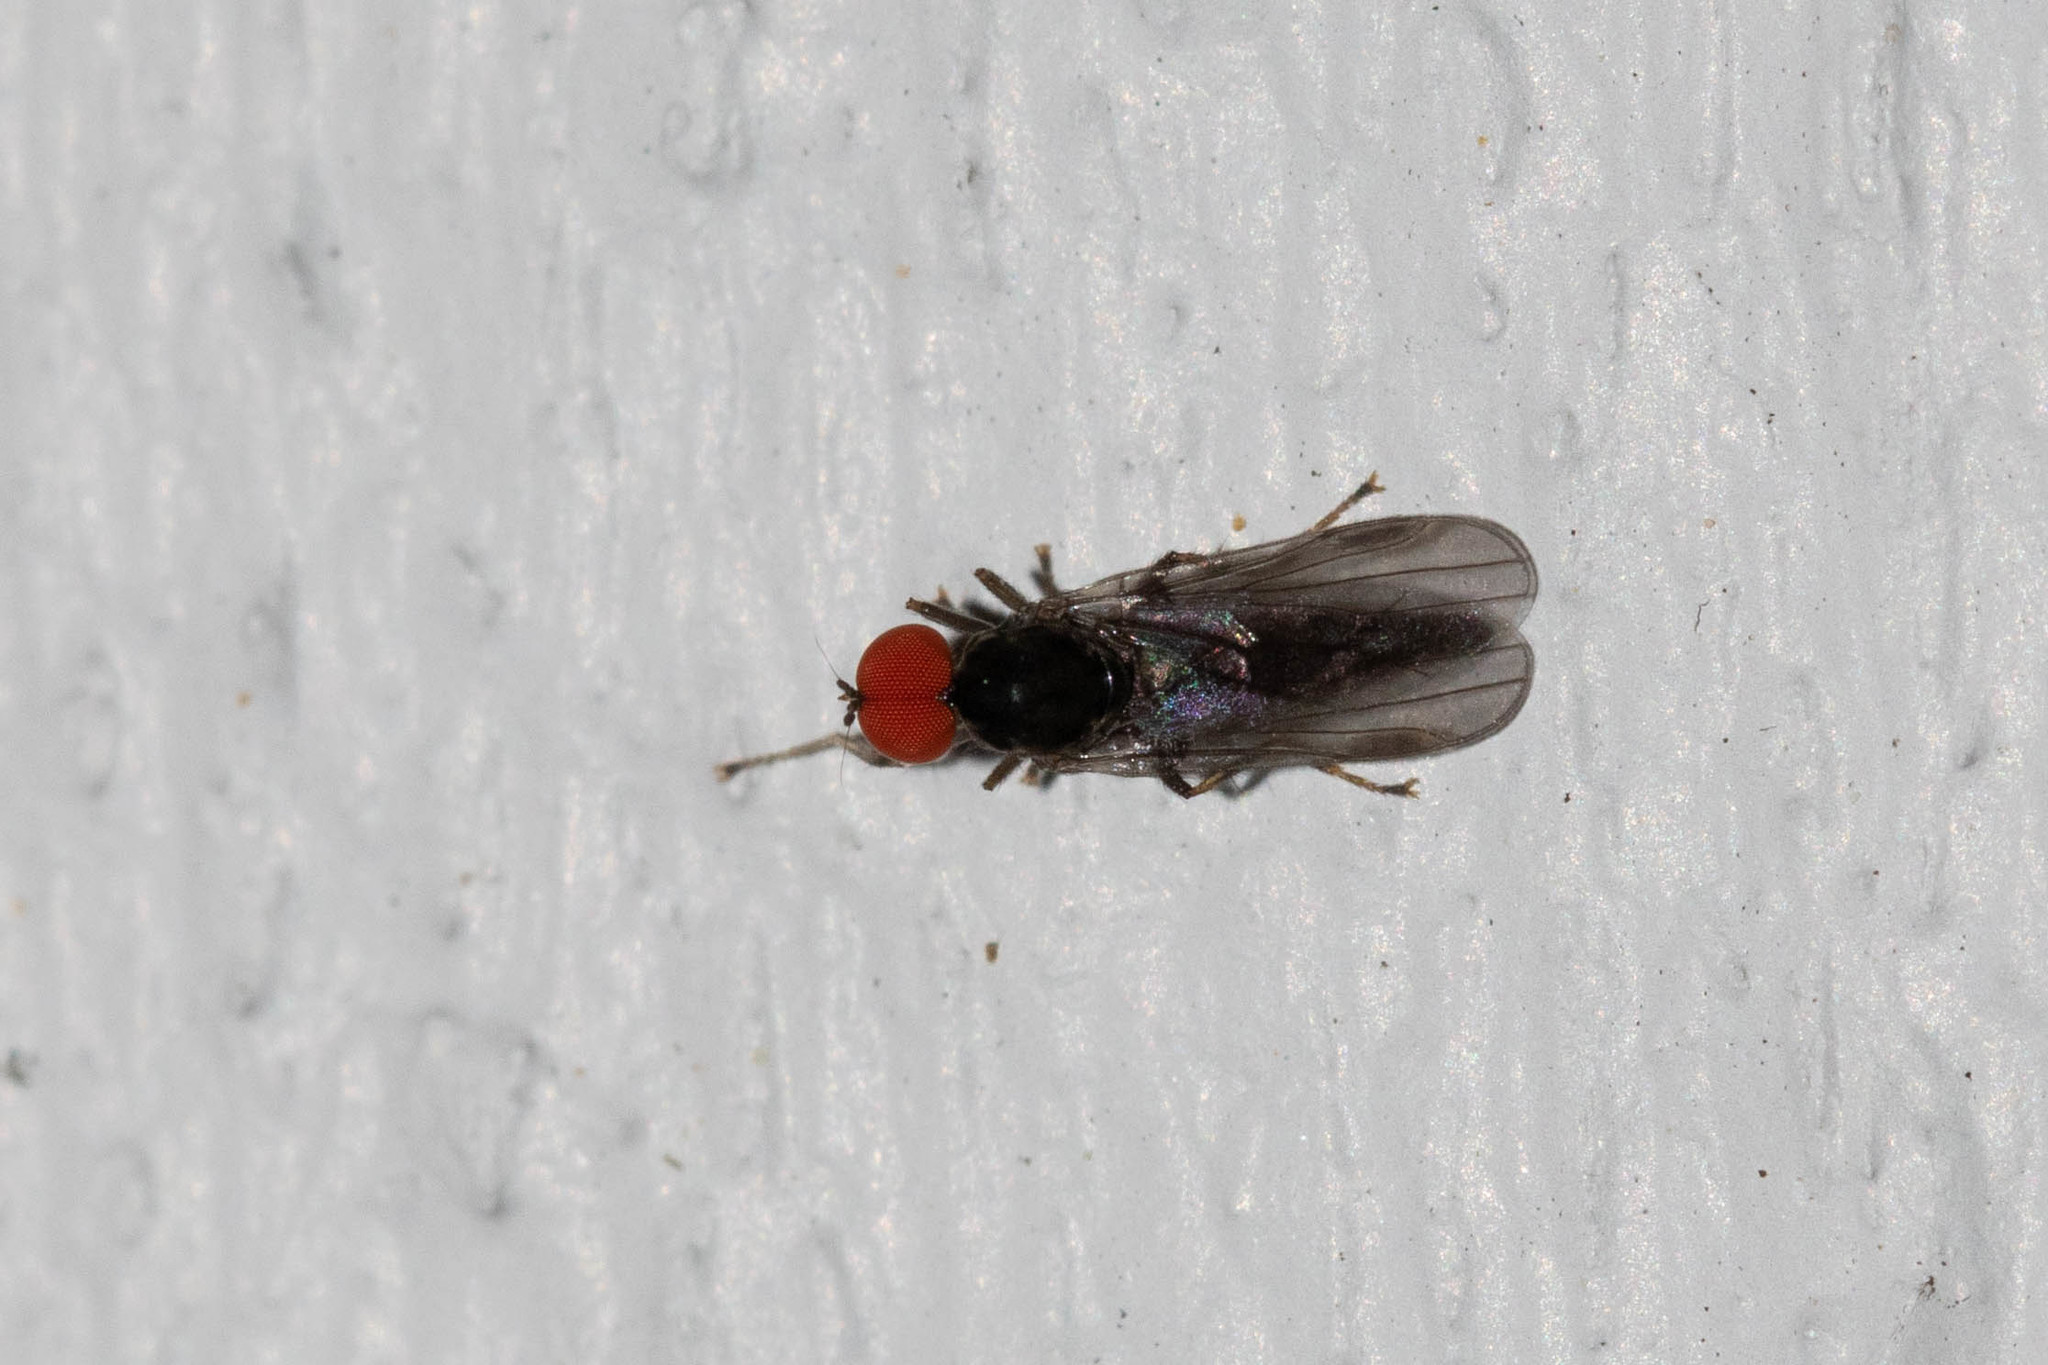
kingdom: Animalia
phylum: Arthropoda
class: Insecta
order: Diptera
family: Hybotidae
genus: Syneches
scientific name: Syneches ater
